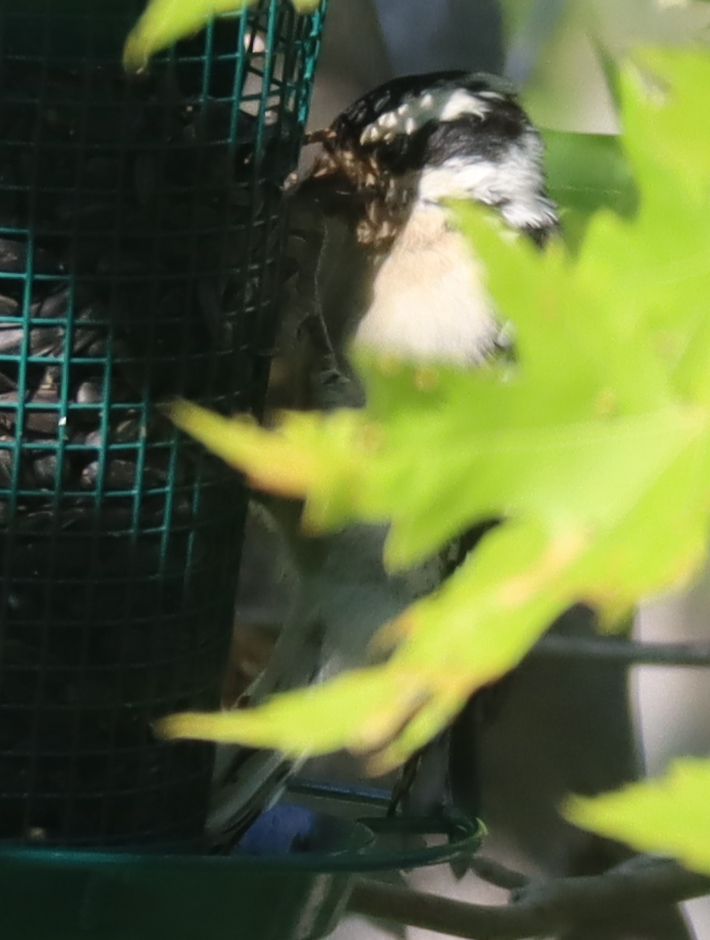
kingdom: Animalia
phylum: Chordata
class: Aves
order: Piciformes
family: Picidae
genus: Dryobates
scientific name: Dryobates pubescens
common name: Downy woodpecker
